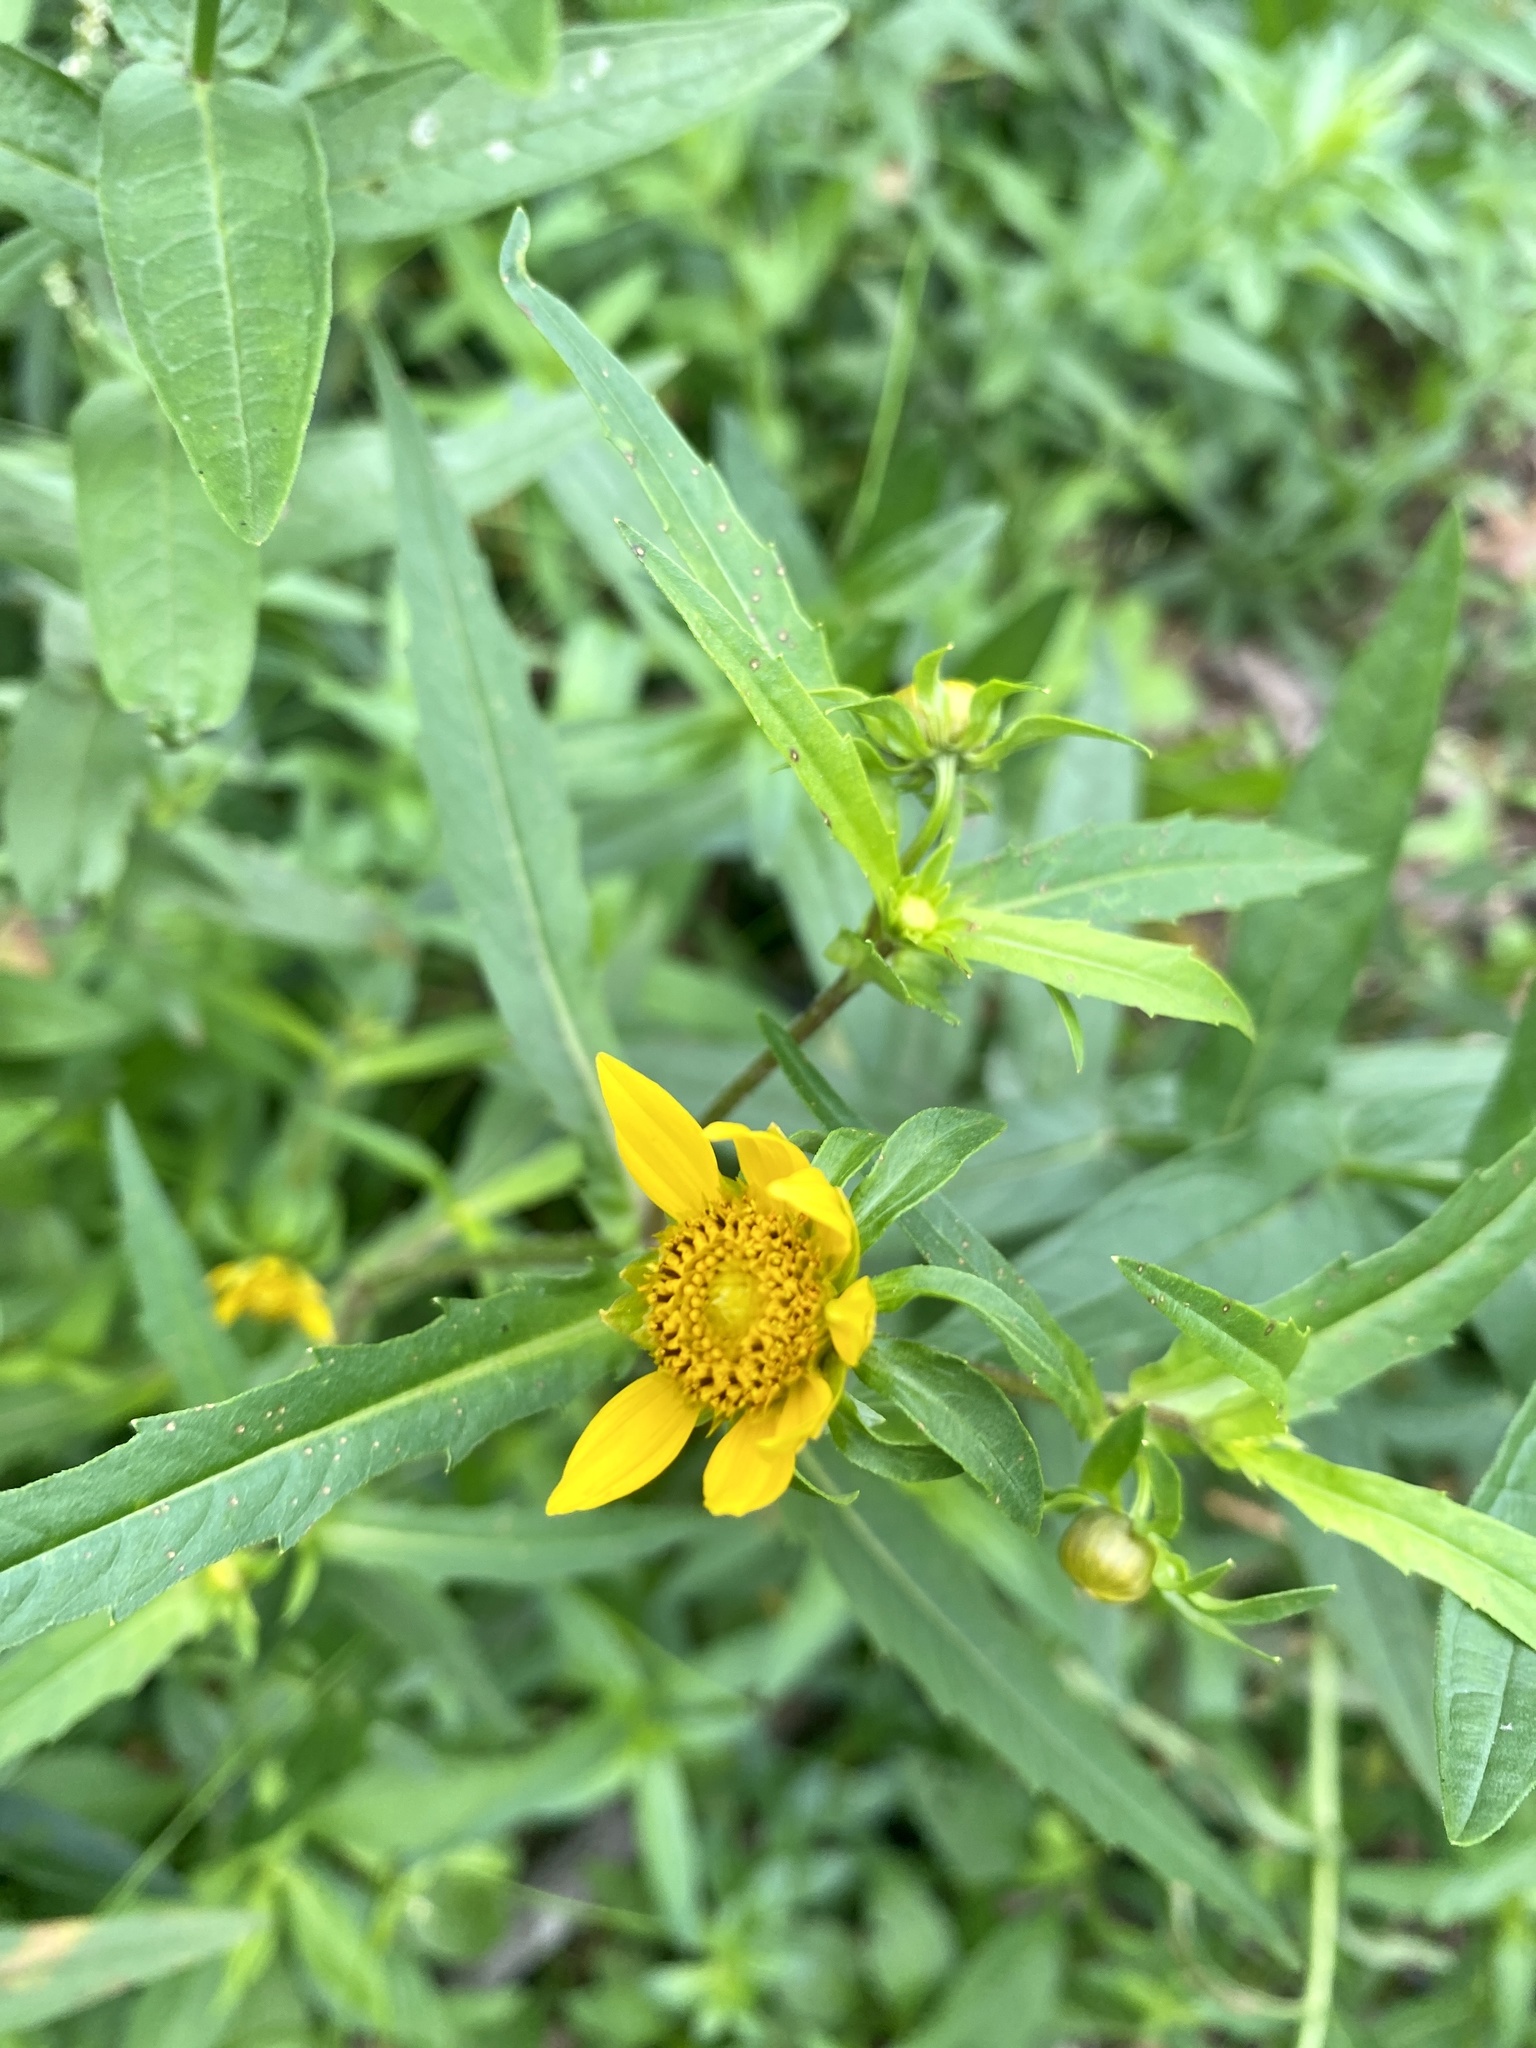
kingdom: Plantae
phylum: Tracheophyta
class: Magnoliopsida
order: Asterales
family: Asteraceae
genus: Bidens
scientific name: Bidens cernua
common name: Nodding bur-marigold
